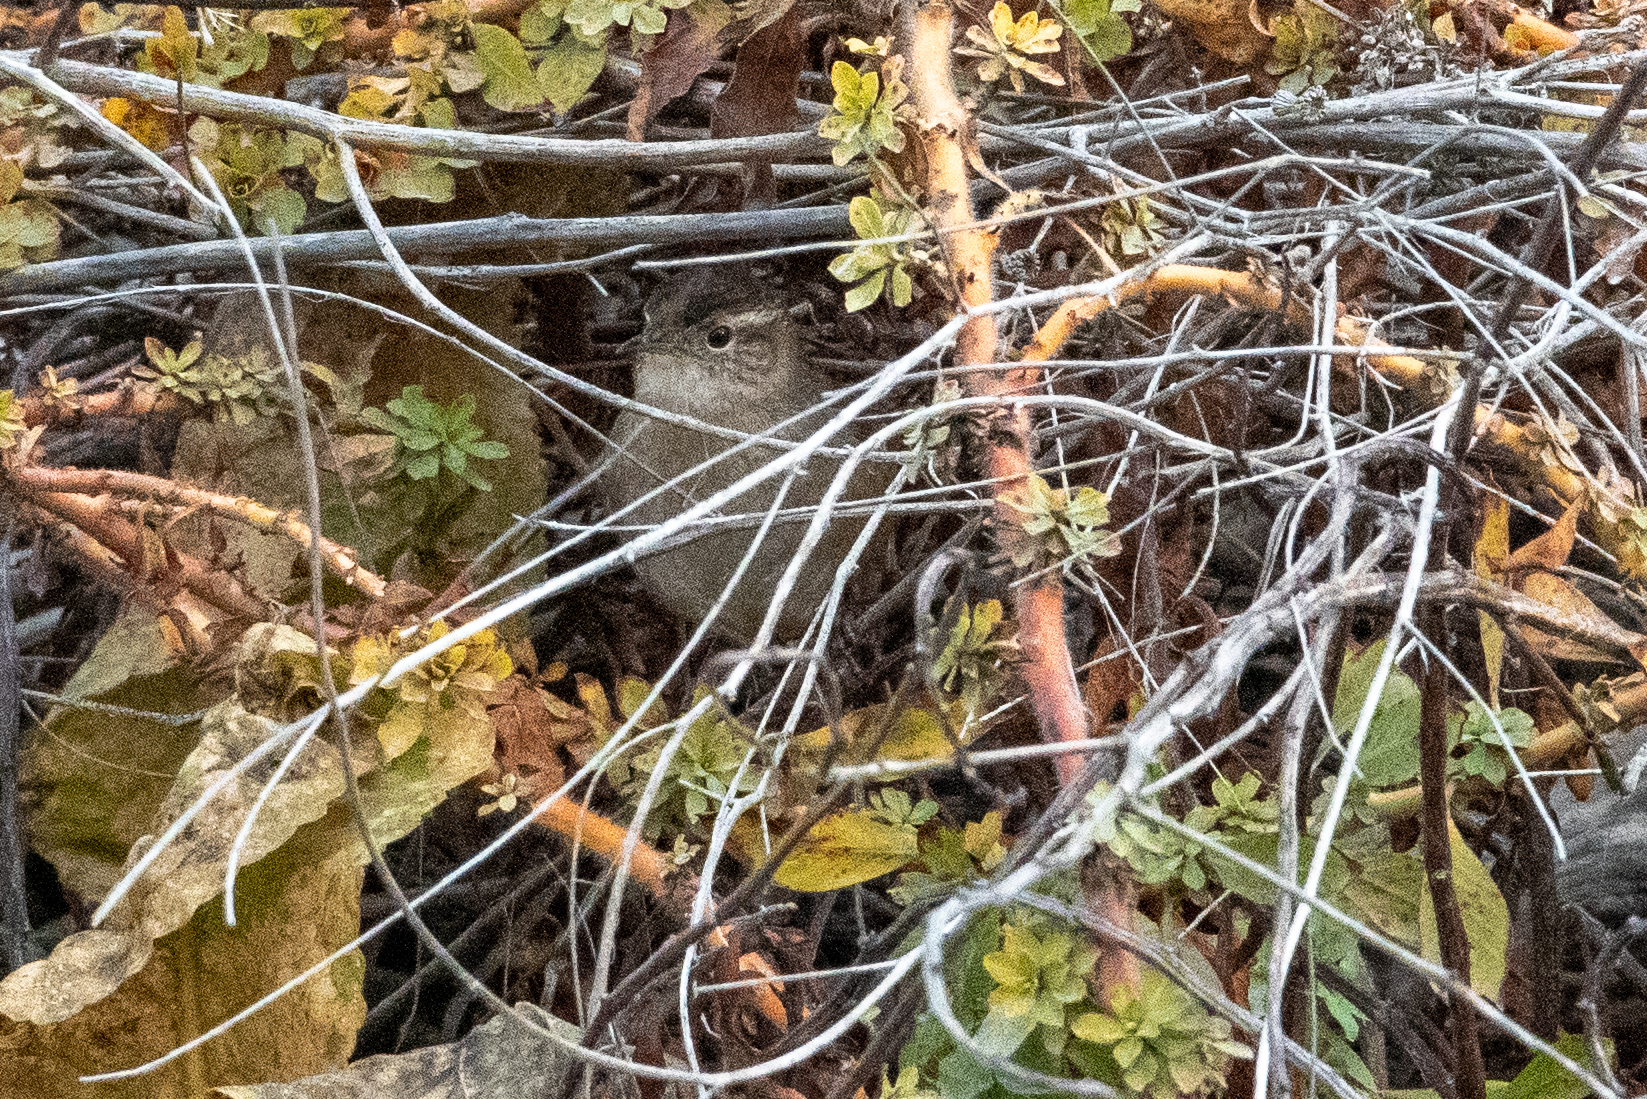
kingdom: Animalia
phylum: Chordata
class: Aves
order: Passeriformes
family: Troglodytidae
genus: Cistothorus
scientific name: Cistothorus palustris
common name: Marsh wren
